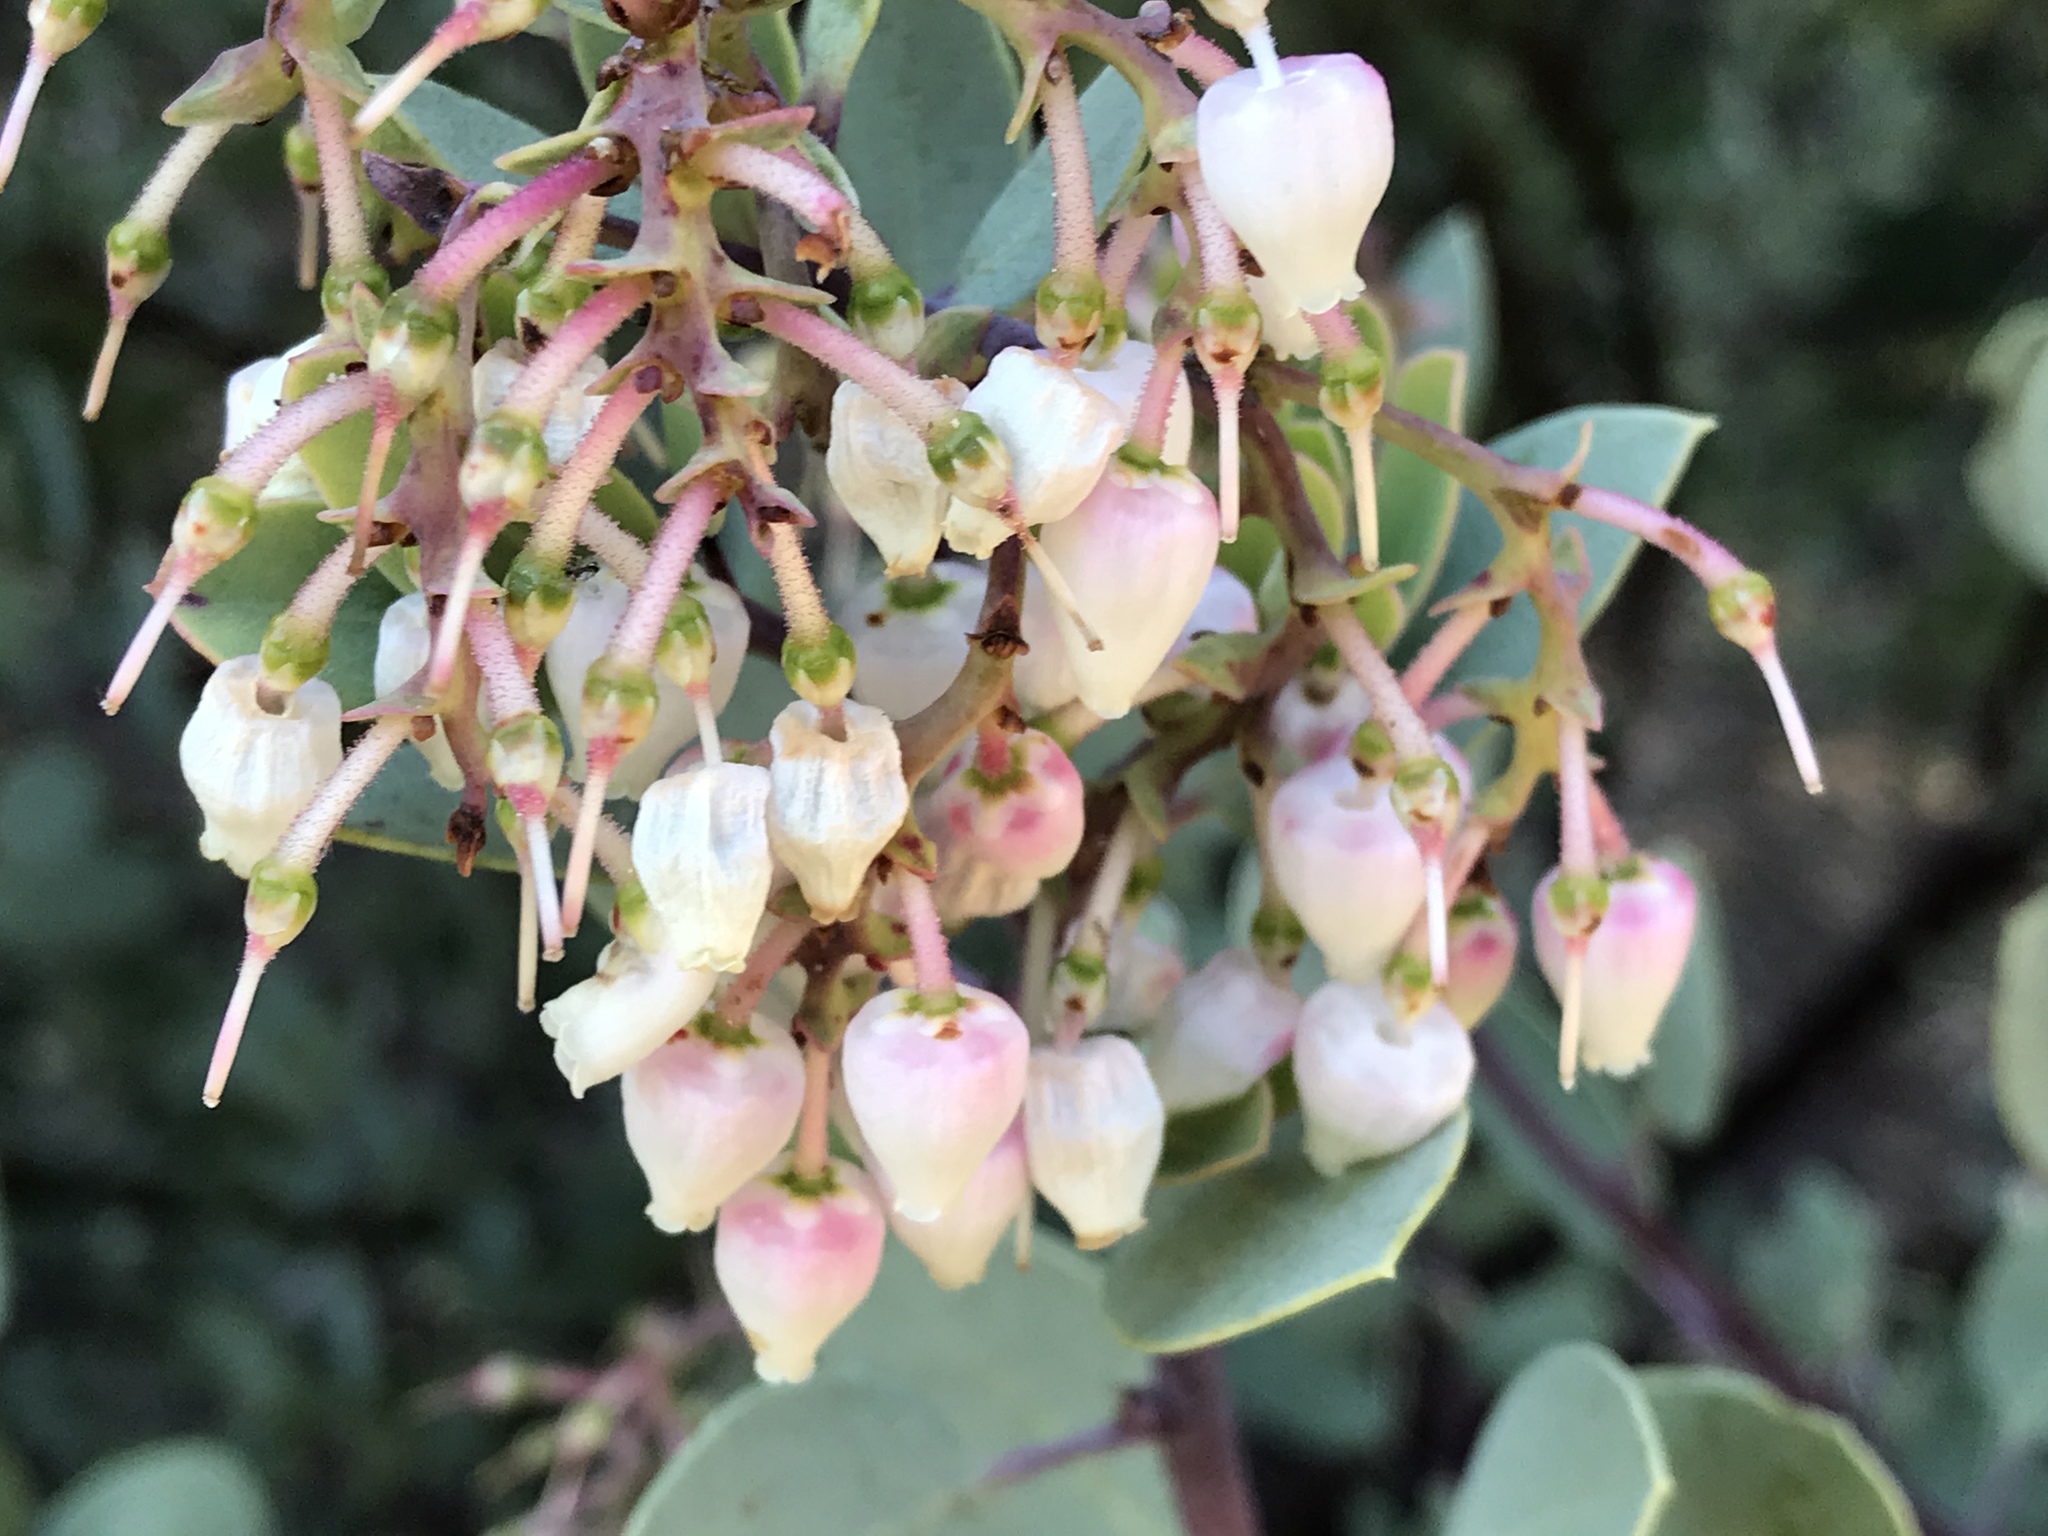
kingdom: Plantae
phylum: Tracheophyta
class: Magnoliopsida
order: Ericales
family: Ericaceae
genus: Arctostaphylos
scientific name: Arctostaphylos glauca
